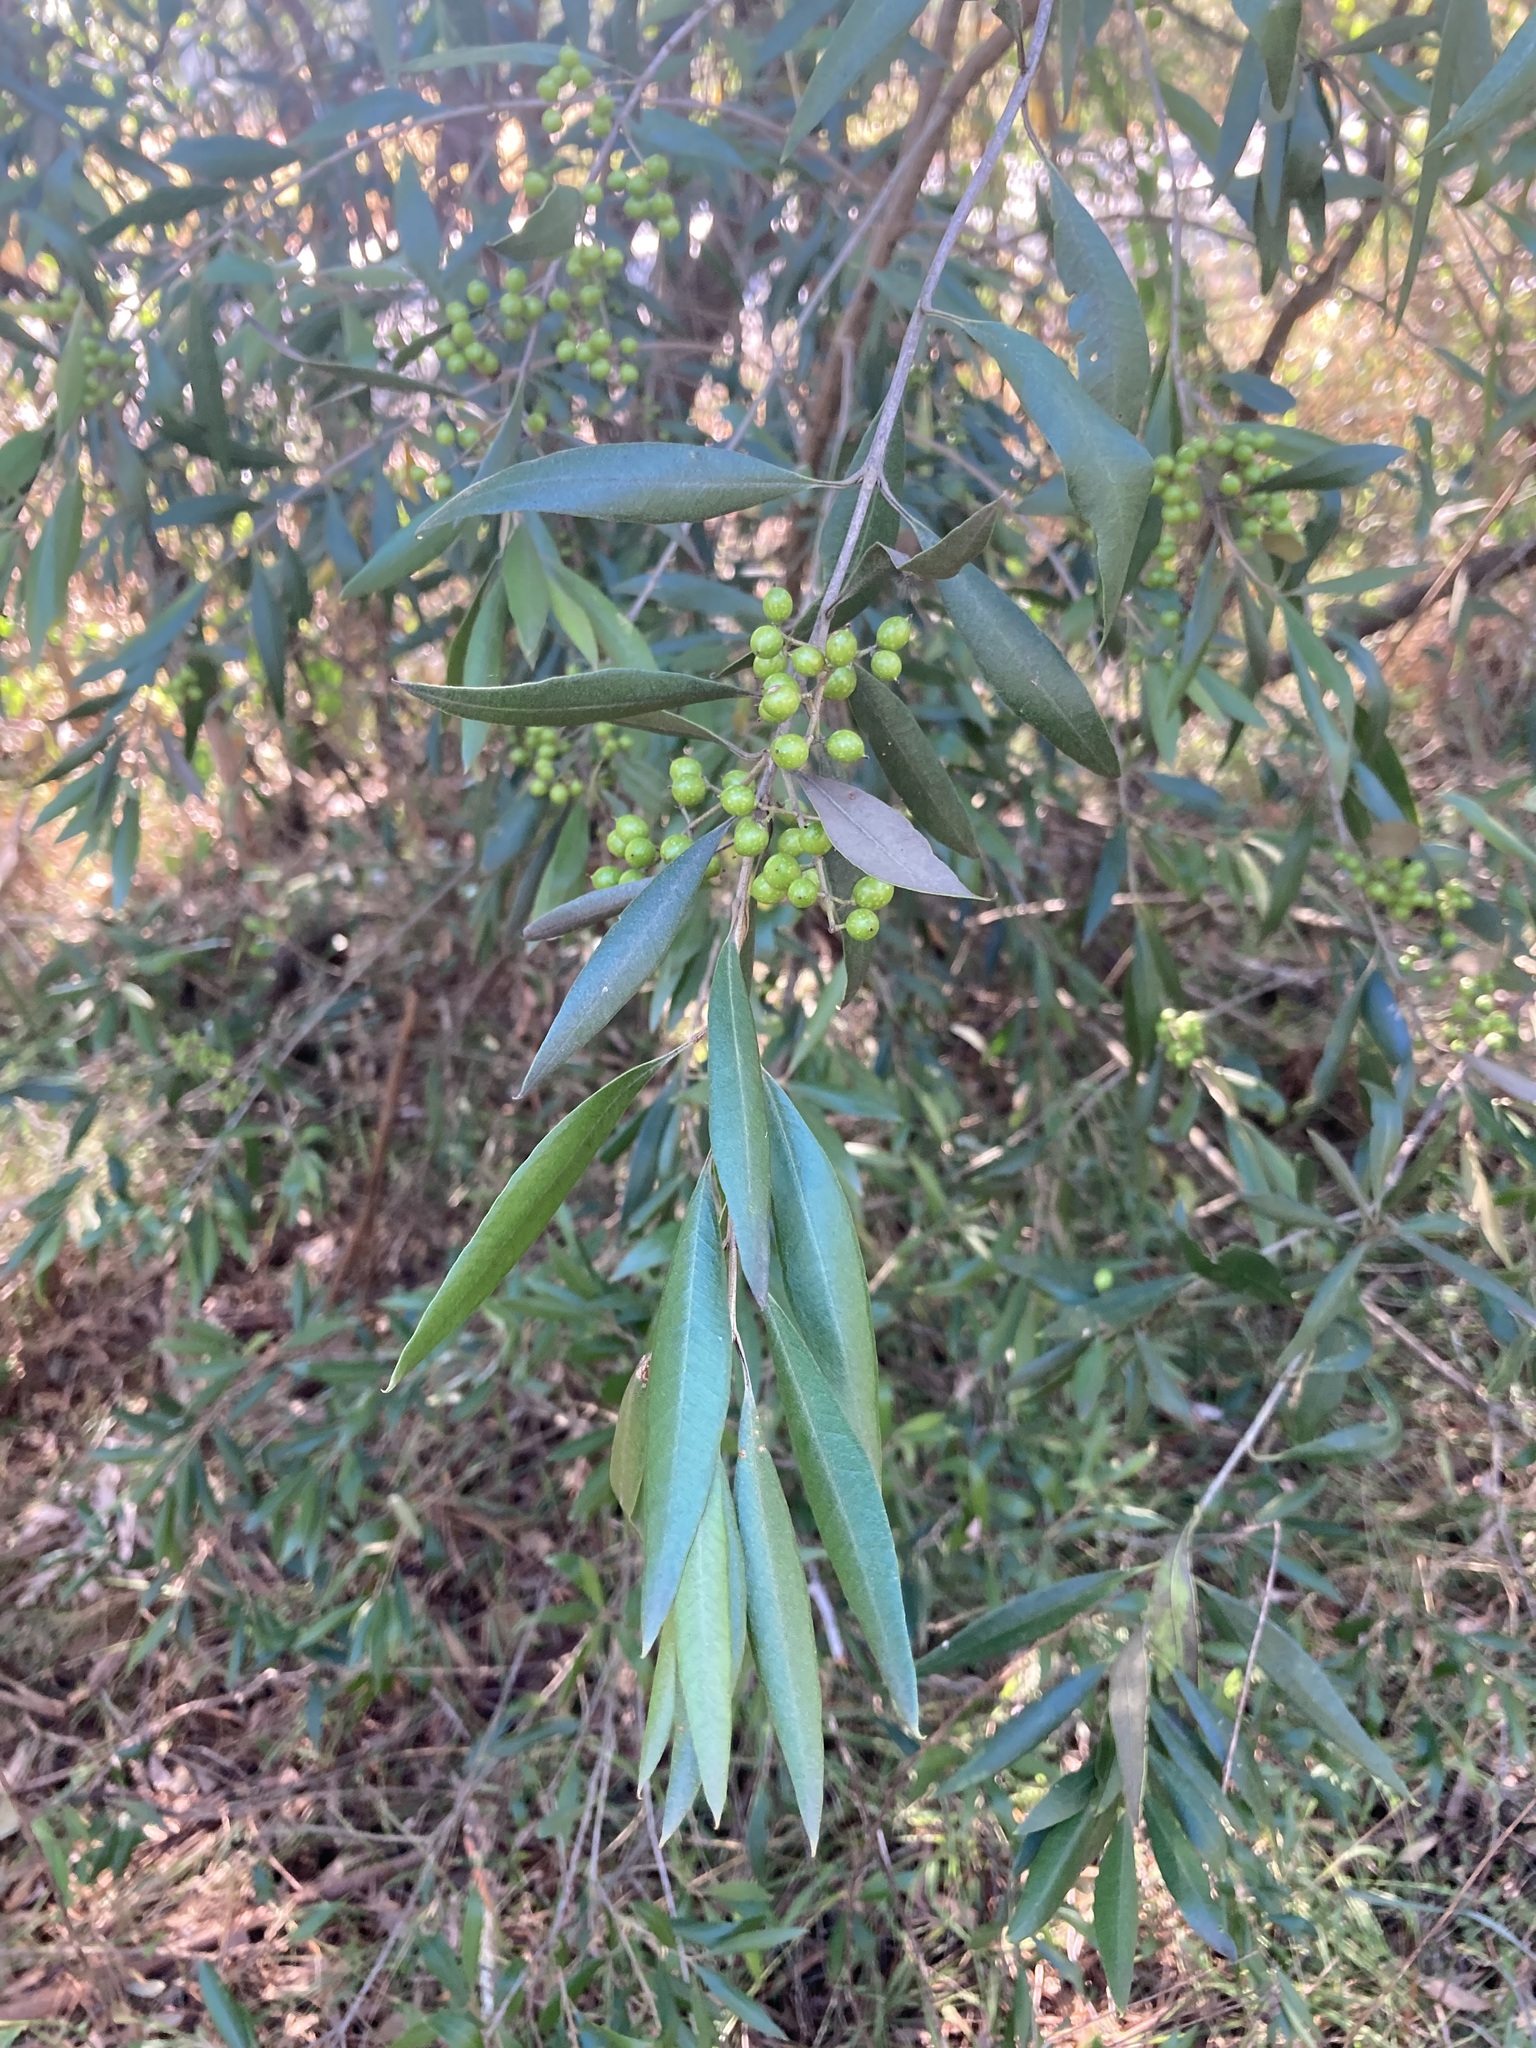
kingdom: Plantae
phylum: Tracheophyta
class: Magnoliopsida
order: Lamiales
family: Oleaceae
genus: Olea
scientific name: Olea europaea
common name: Olive
